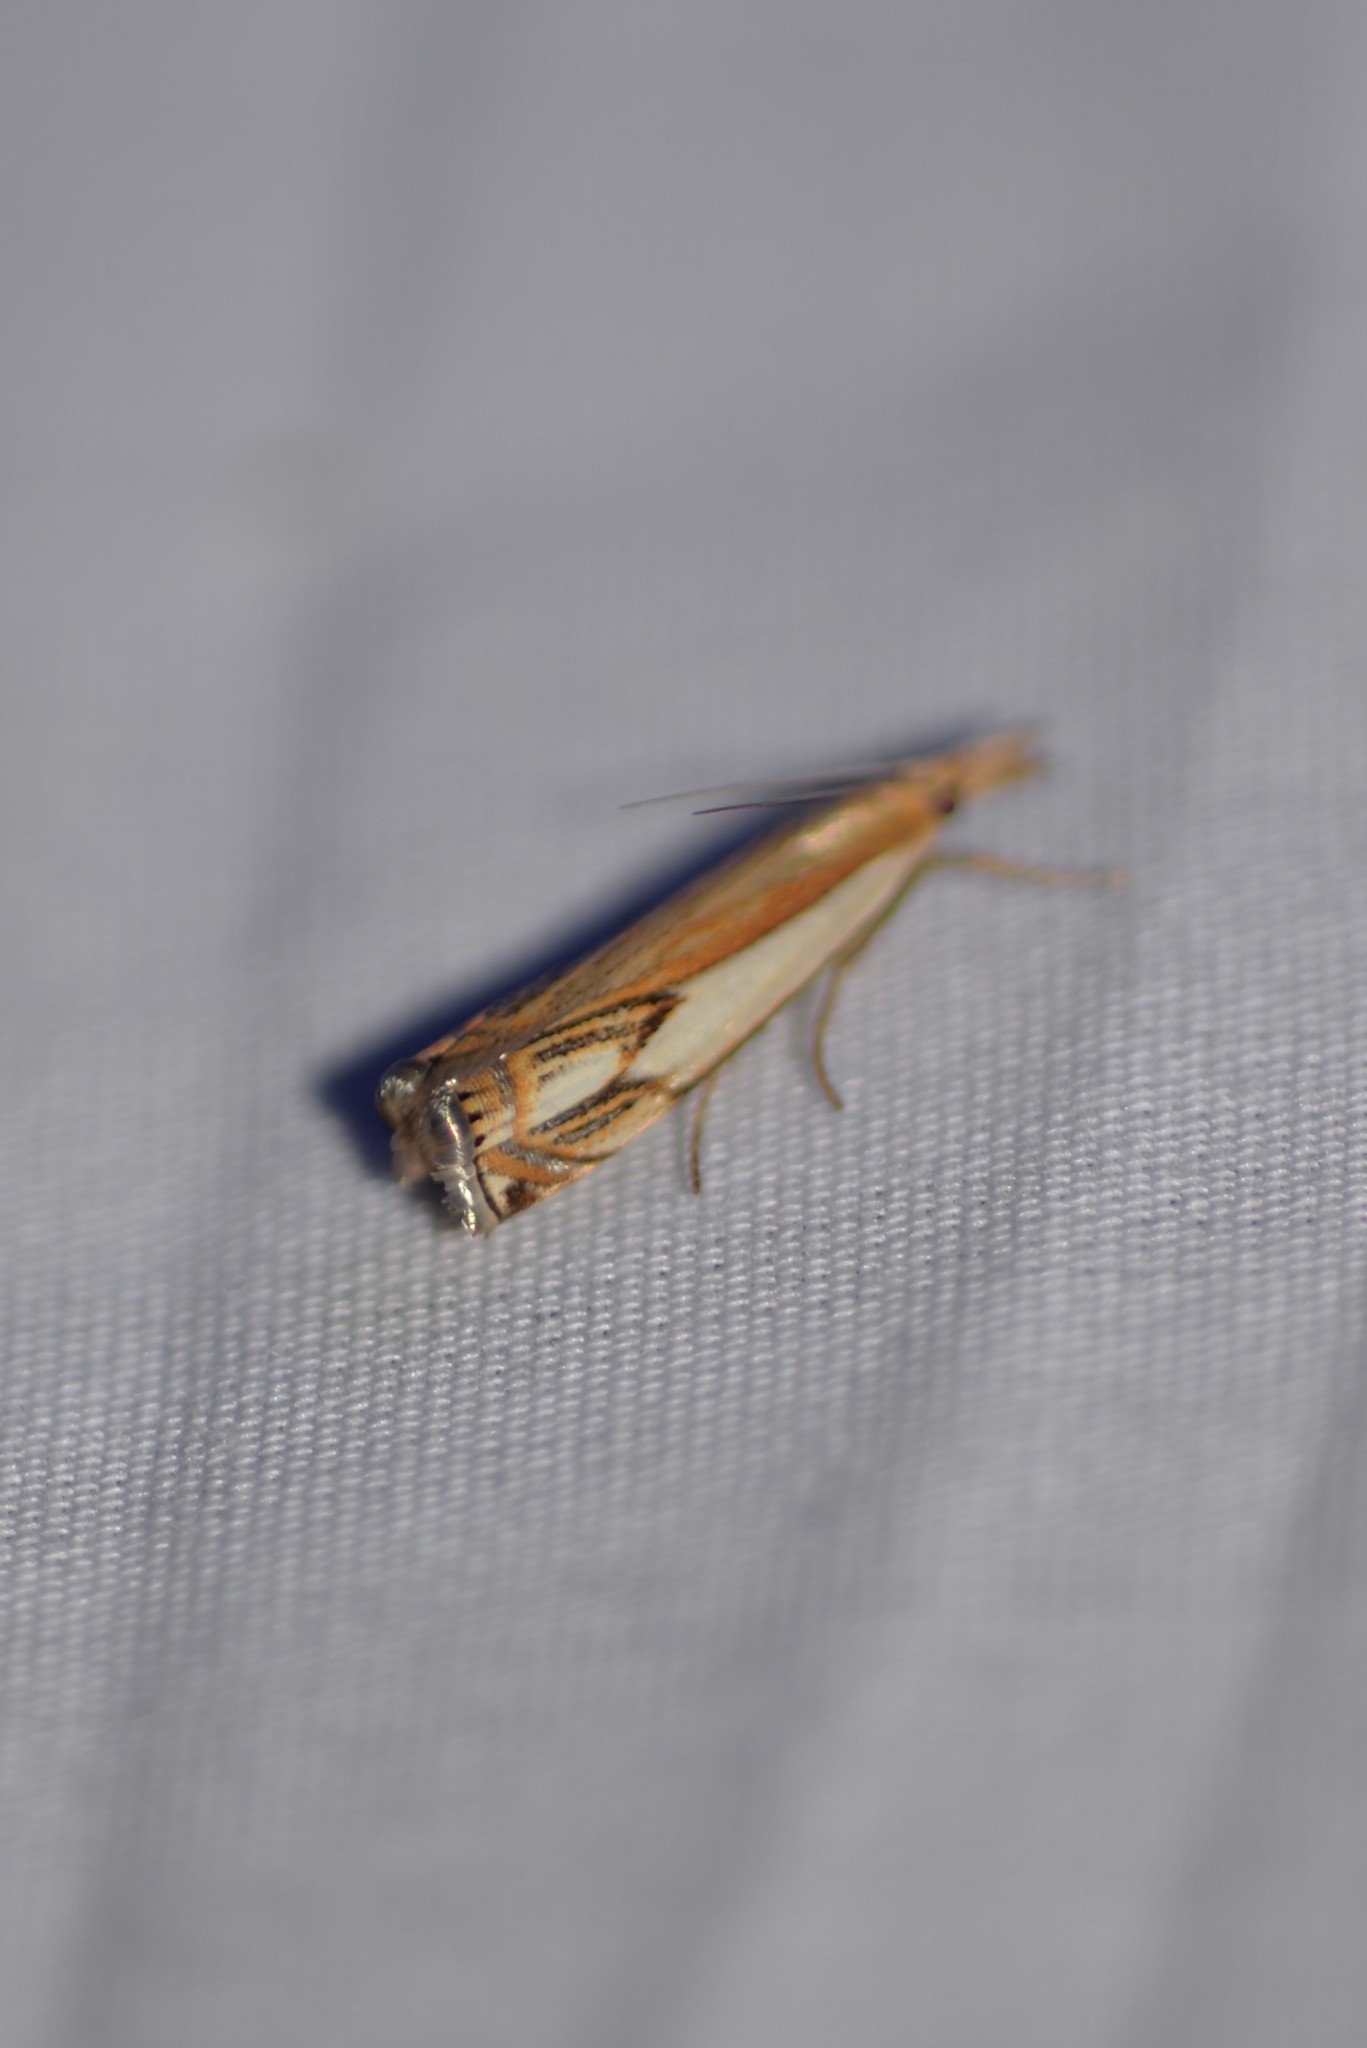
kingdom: Animalia
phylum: Arthropoda
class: Insecta
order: Lepidoptera
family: Crambidae
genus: Crambus
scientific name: Crambus agitatellus
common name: Double-banded grass-veneer
